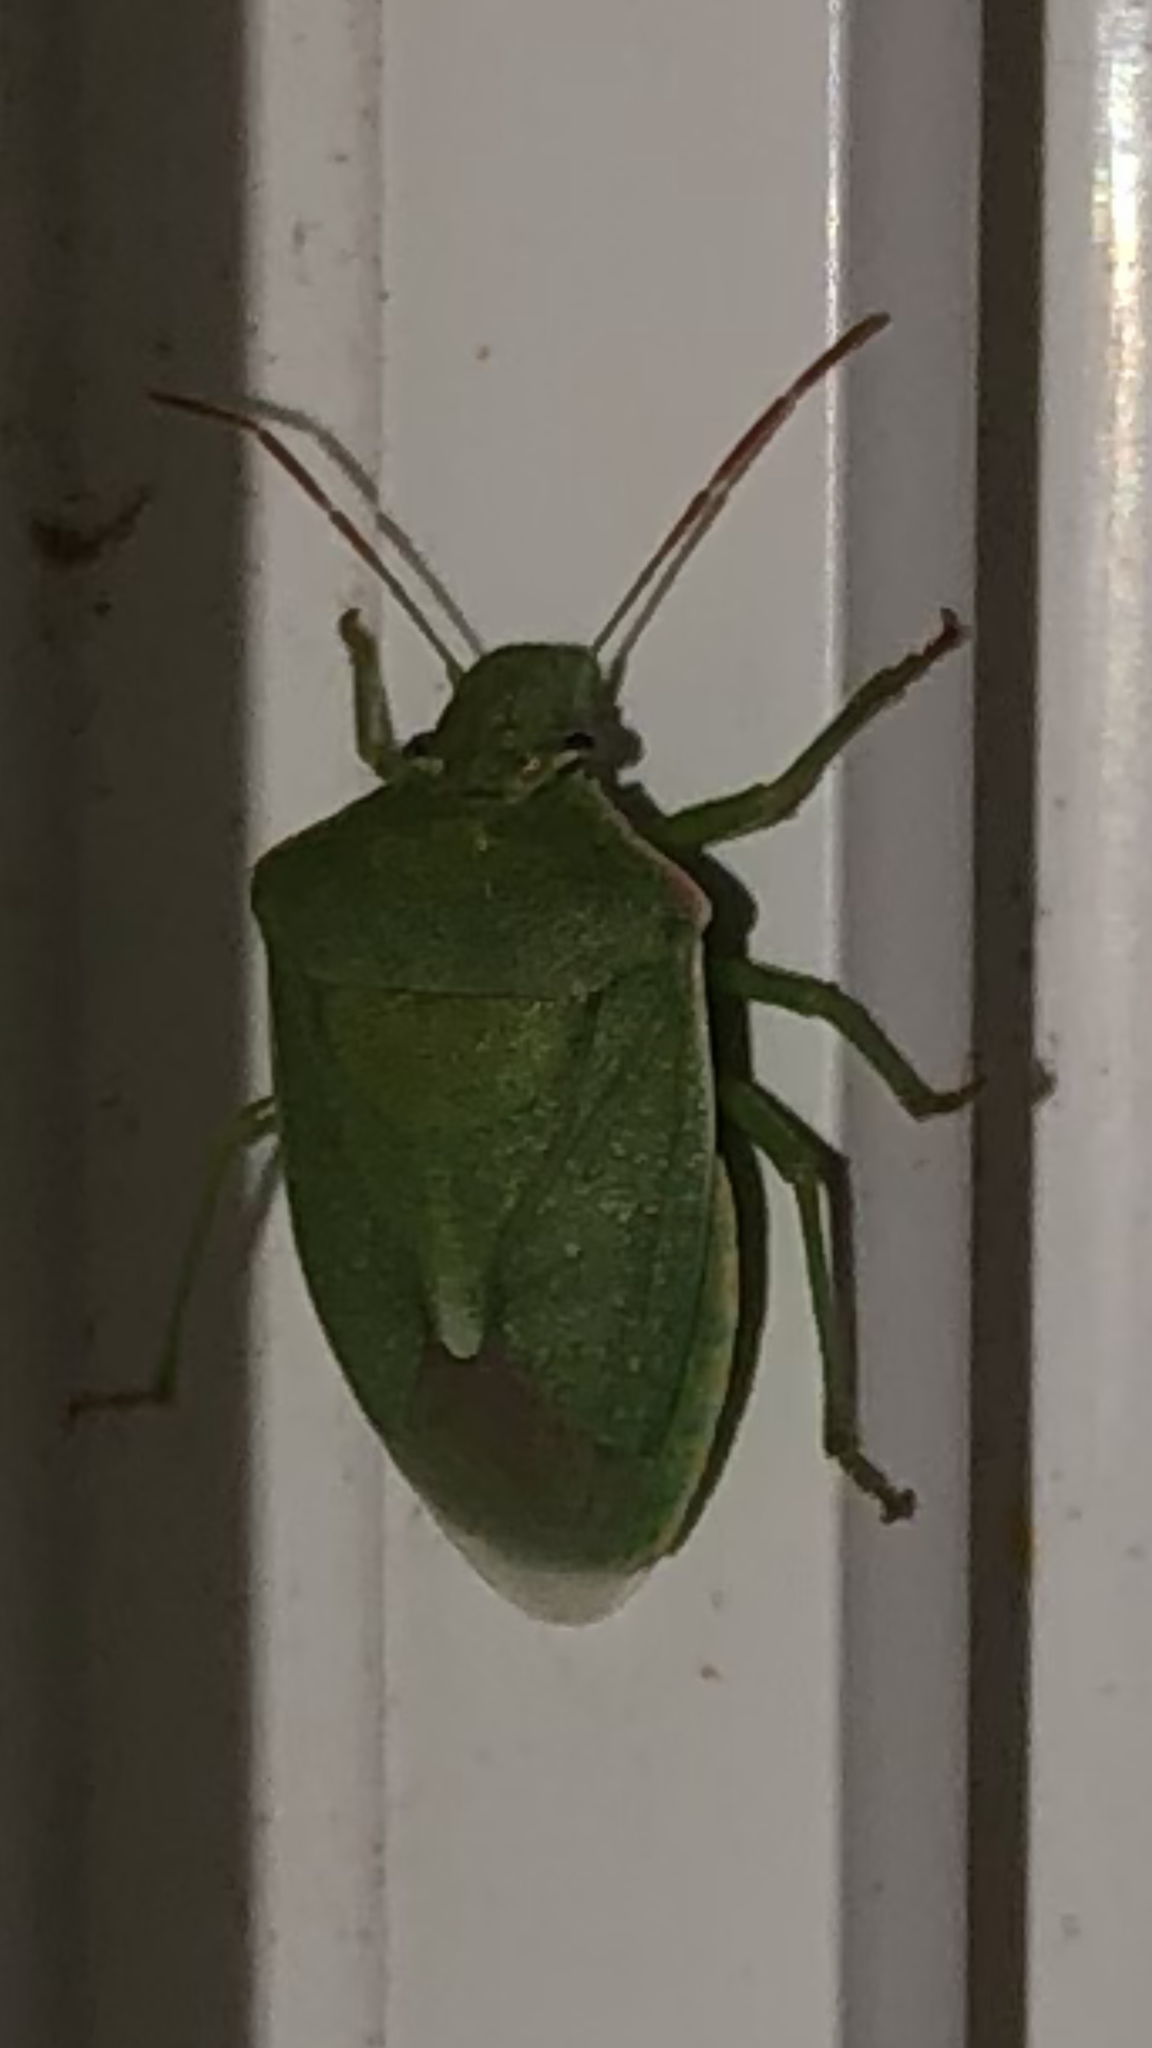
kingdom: Animalia
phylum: Arthropoda
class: Insecta
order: Hemiptera
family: Pentatomidae
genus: Thyanta
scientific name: Thyanta accerra
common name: Stink bug
